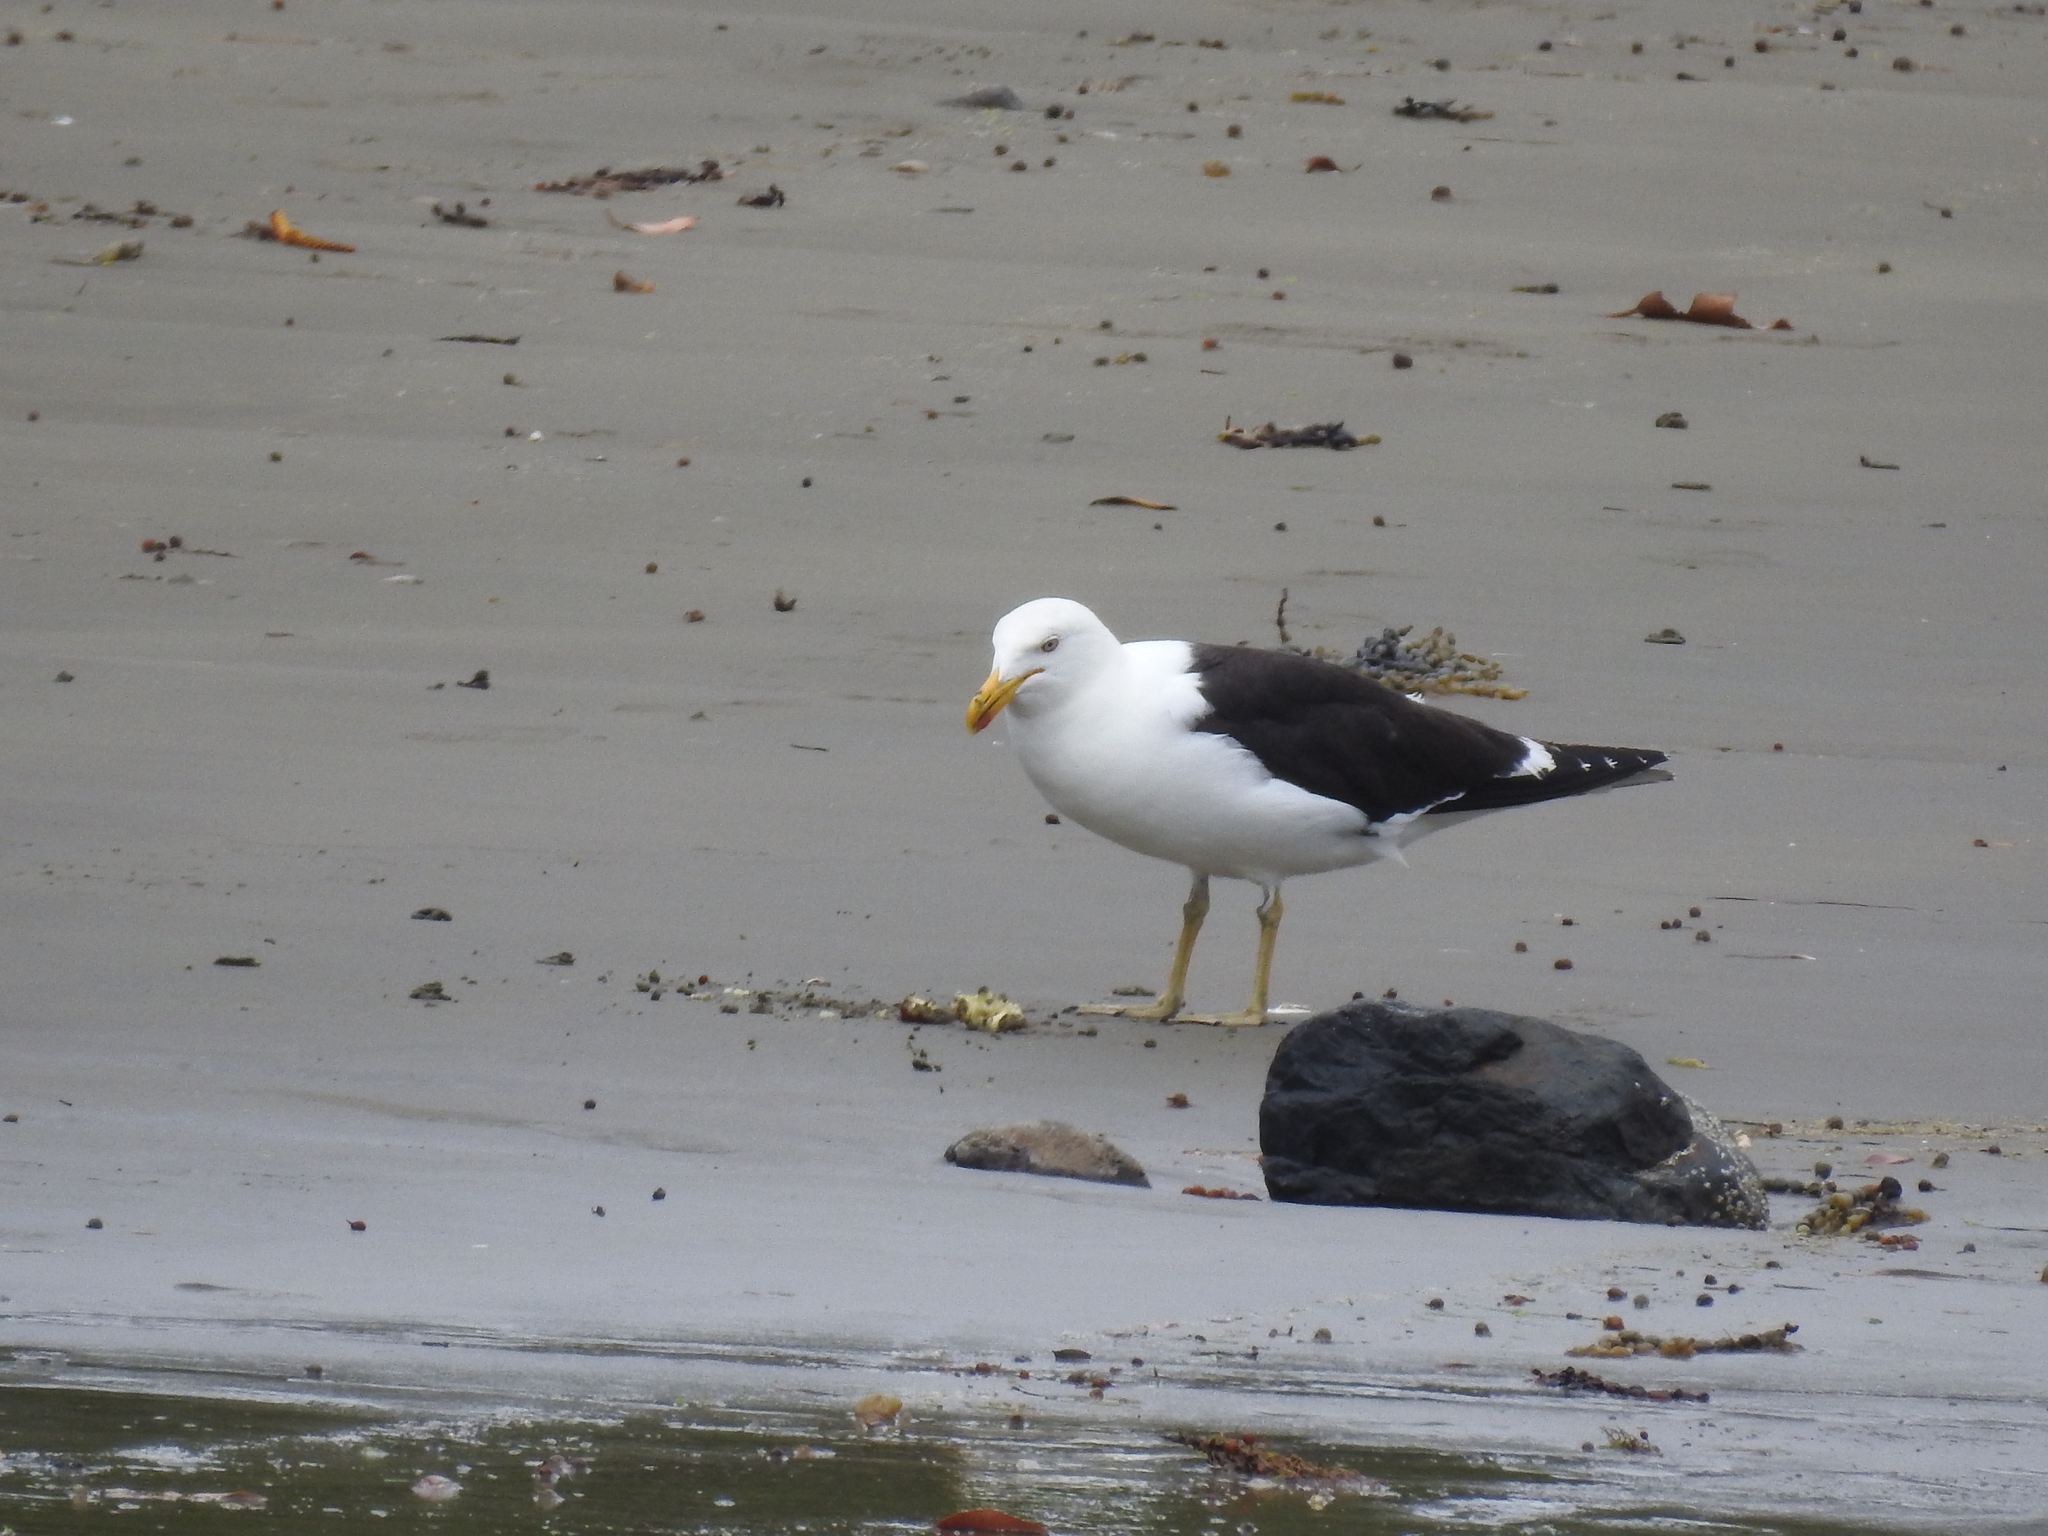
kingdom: Animalia
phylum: Chordata
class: Aves
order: Charadriiformes
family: Laridae
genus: Larus
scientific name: Larus dominicanus
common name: Kelp gull
